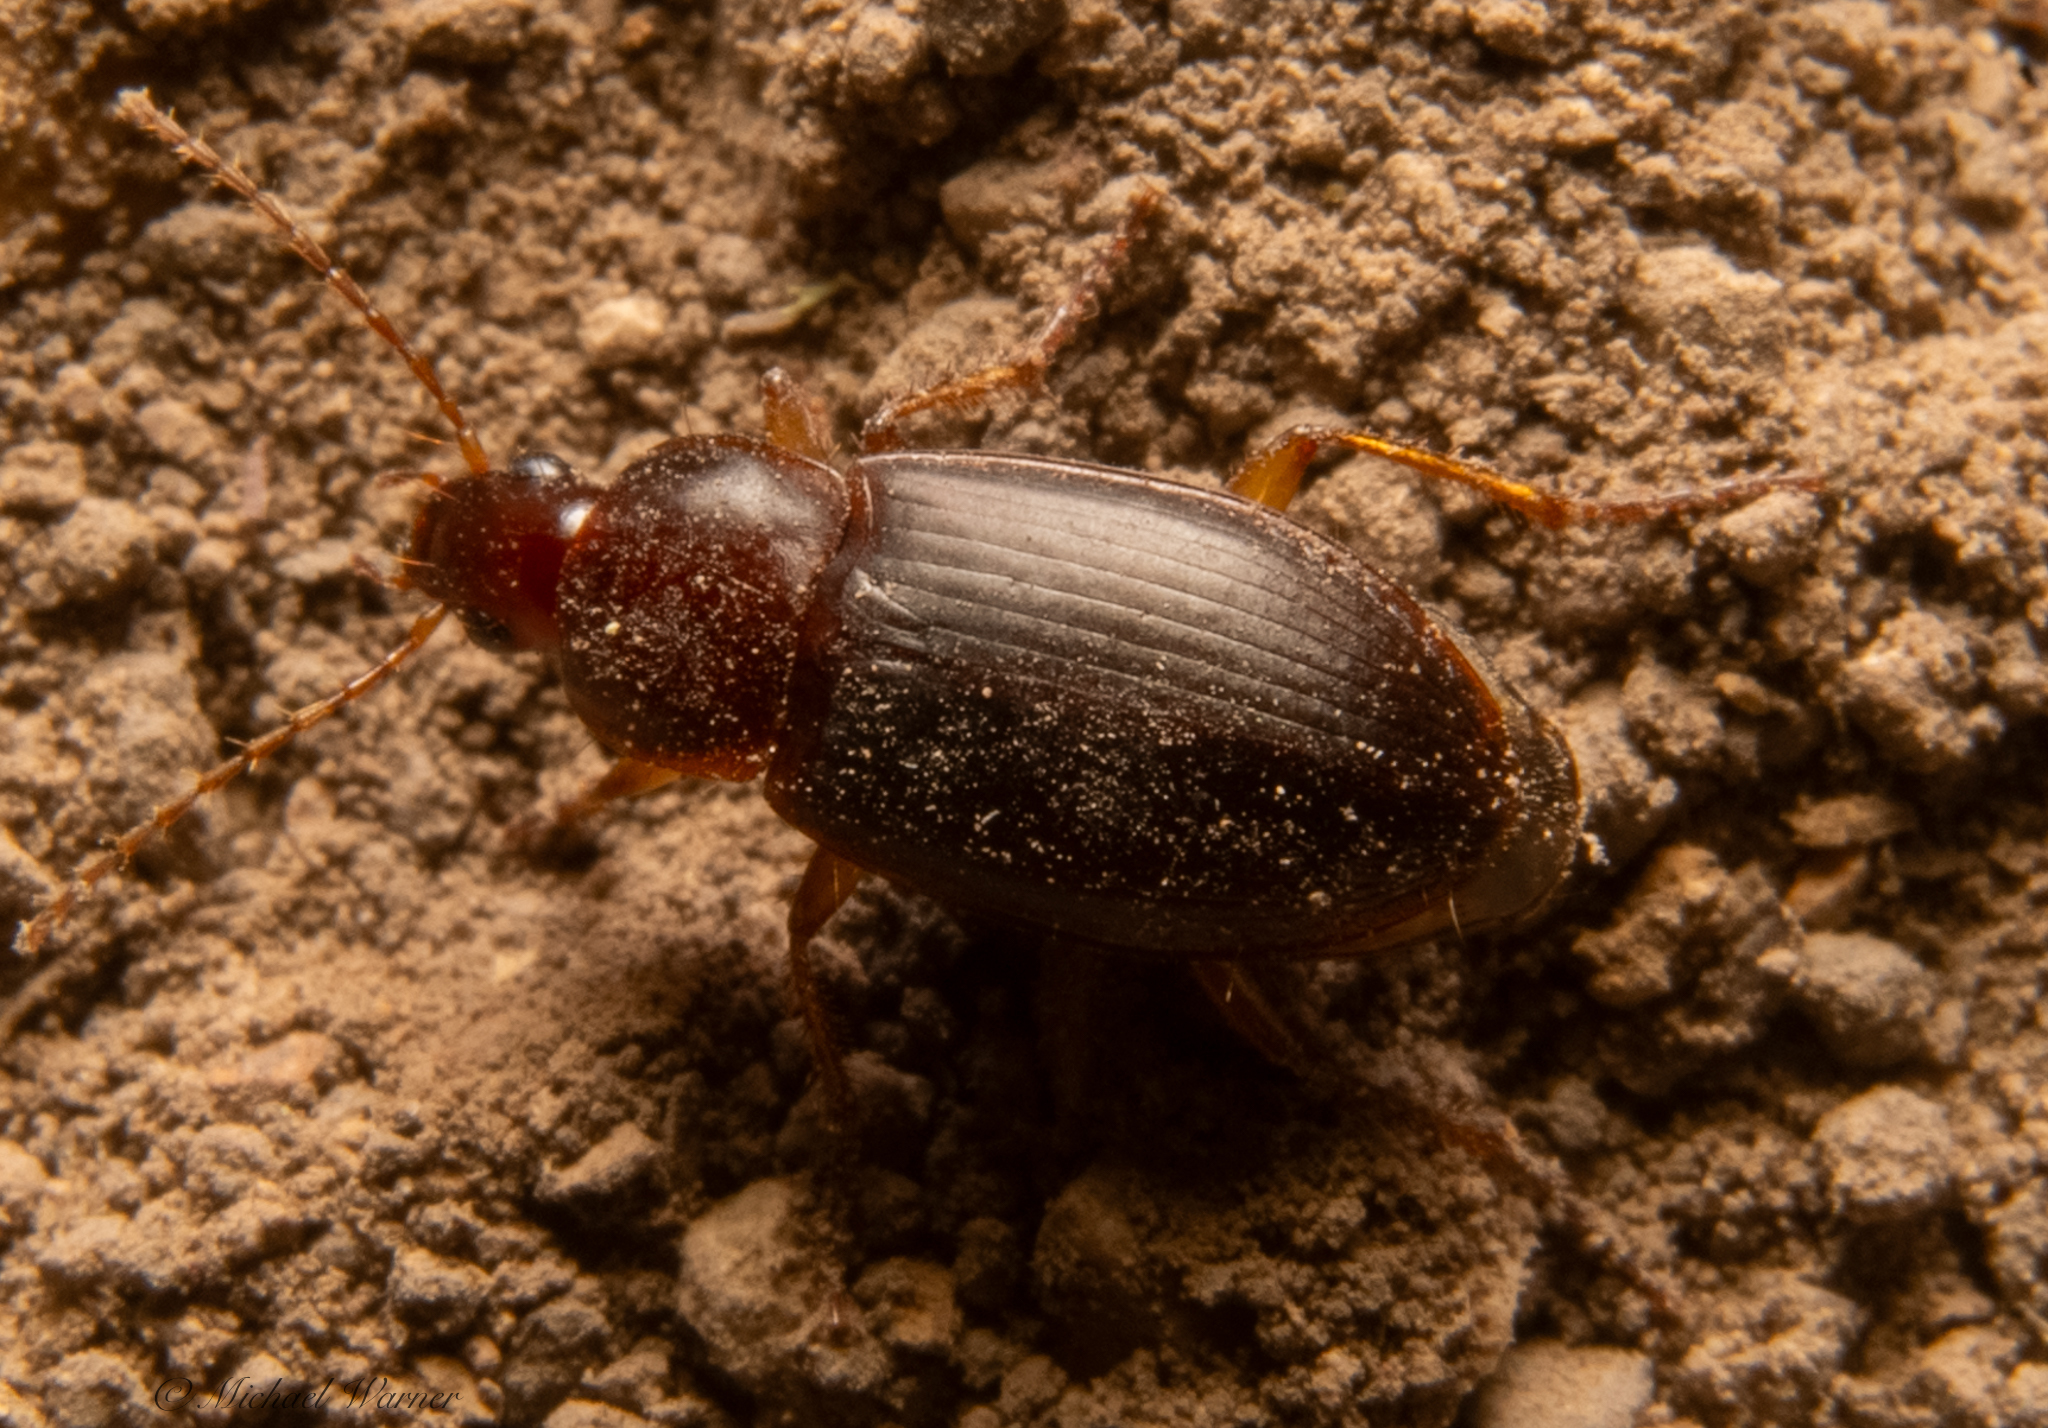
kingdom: Animalia
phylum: Arthropoda
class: Insecta
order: Coleoptera
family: Carabidae
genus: Calathus
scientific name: Calathus ruficollis
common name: Red-collared harp ground beetle
